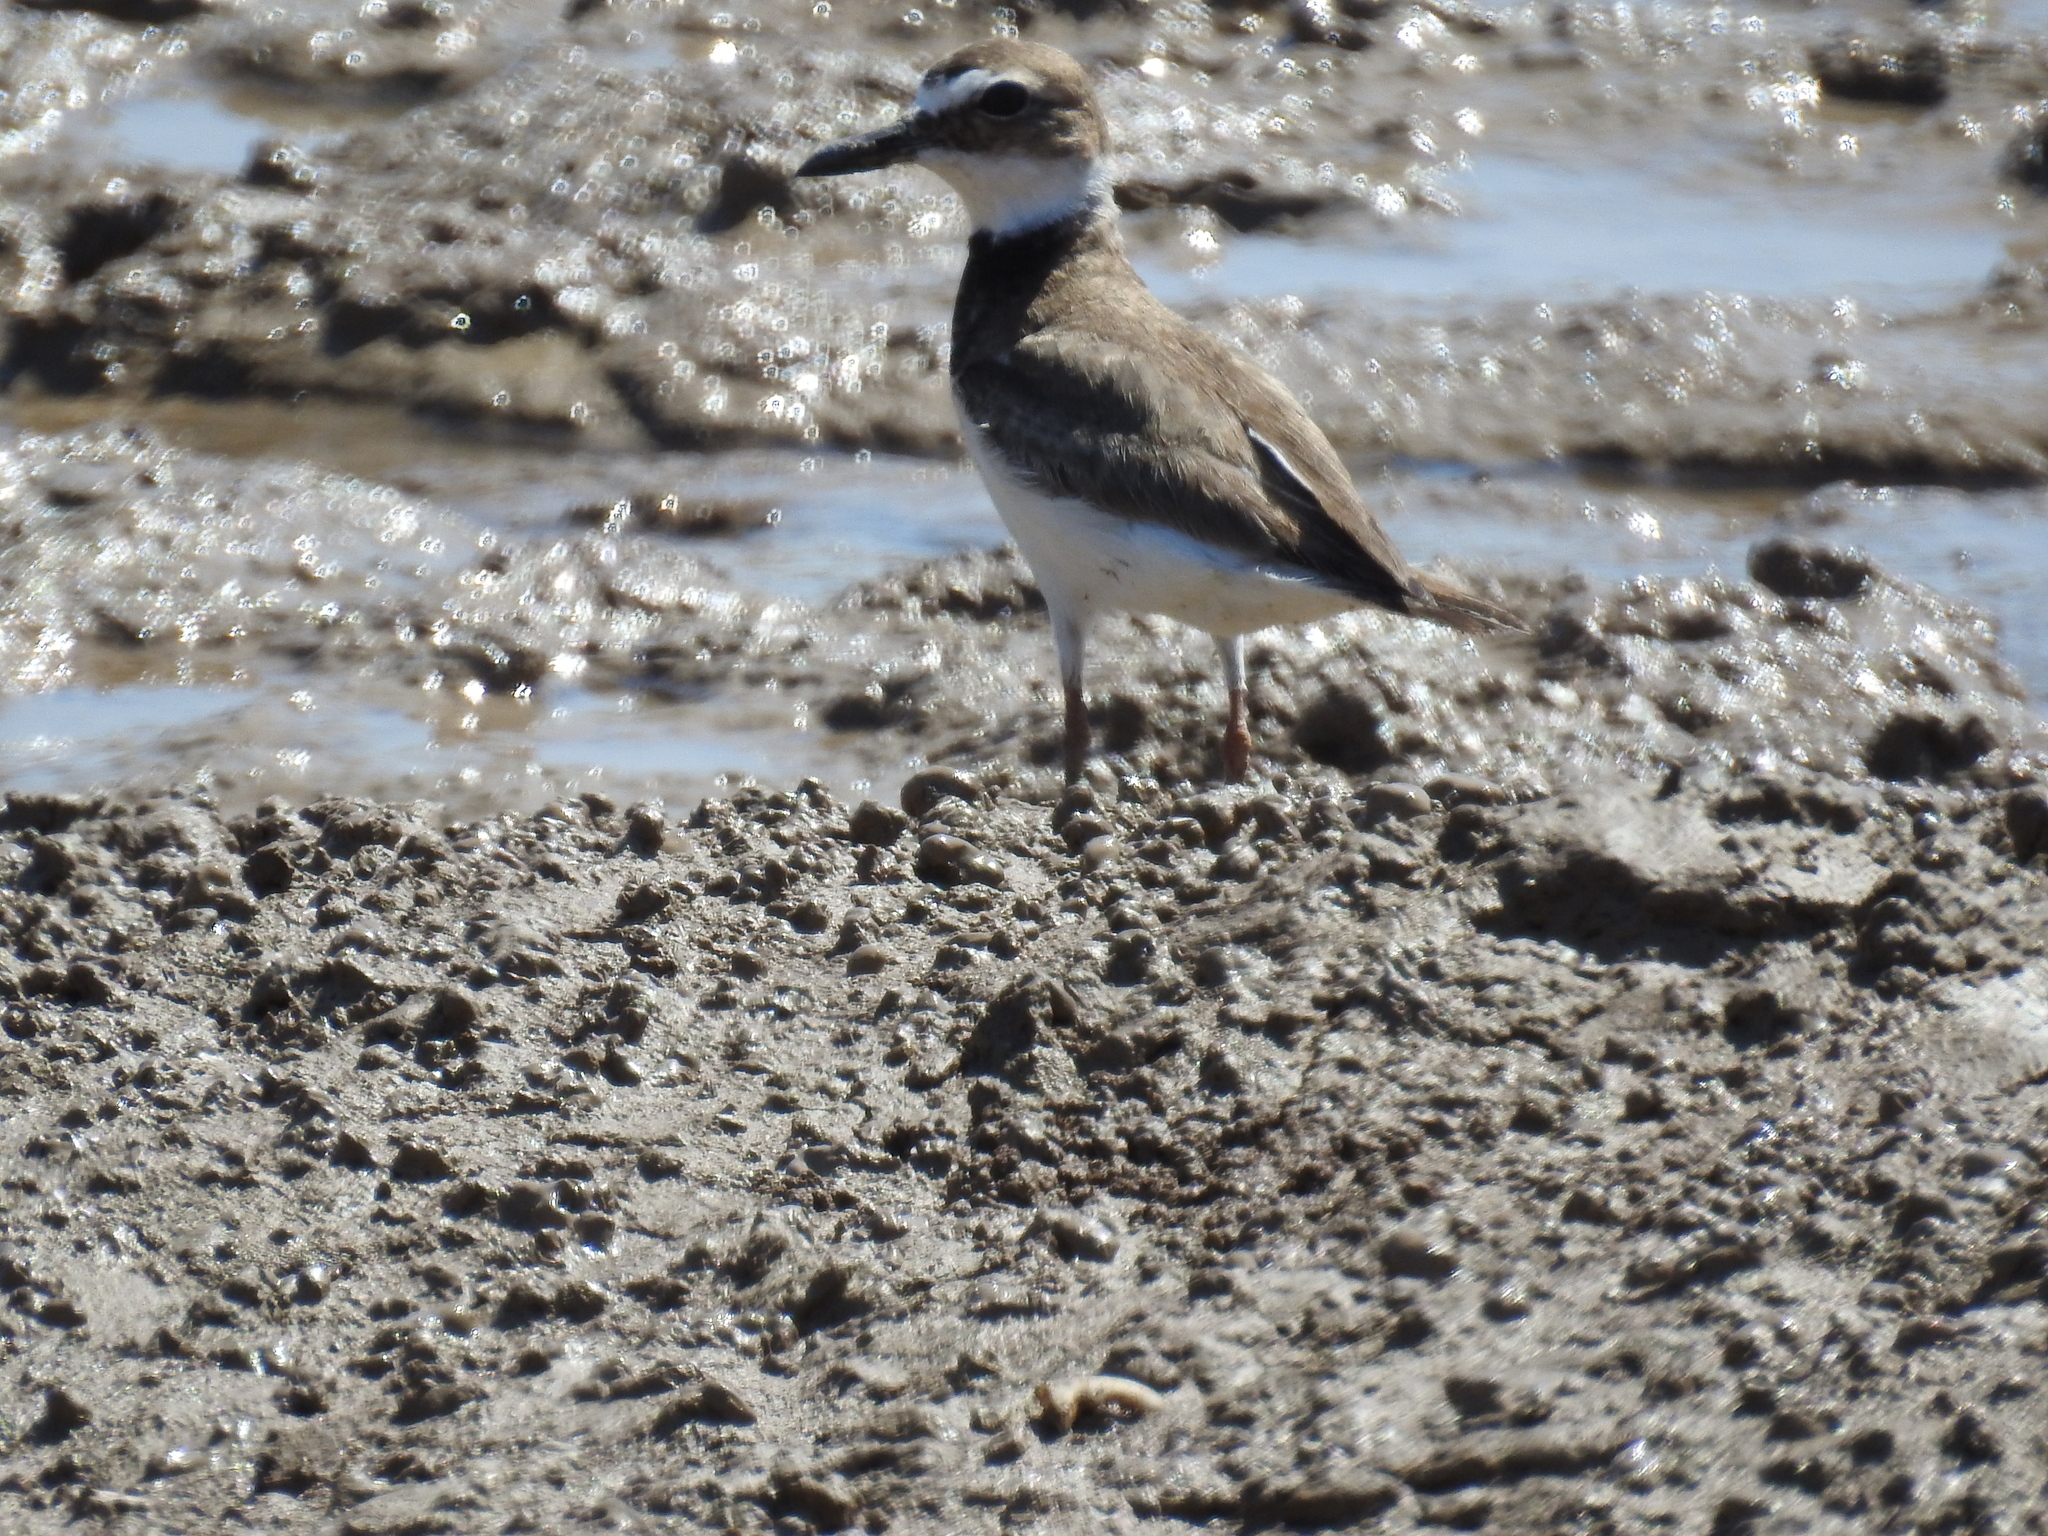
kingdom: Animalia
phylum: Chordata
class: Aves
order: Charadriiformes
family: Charadriidae
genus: Anarhynchus
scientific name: Anarhynchus
